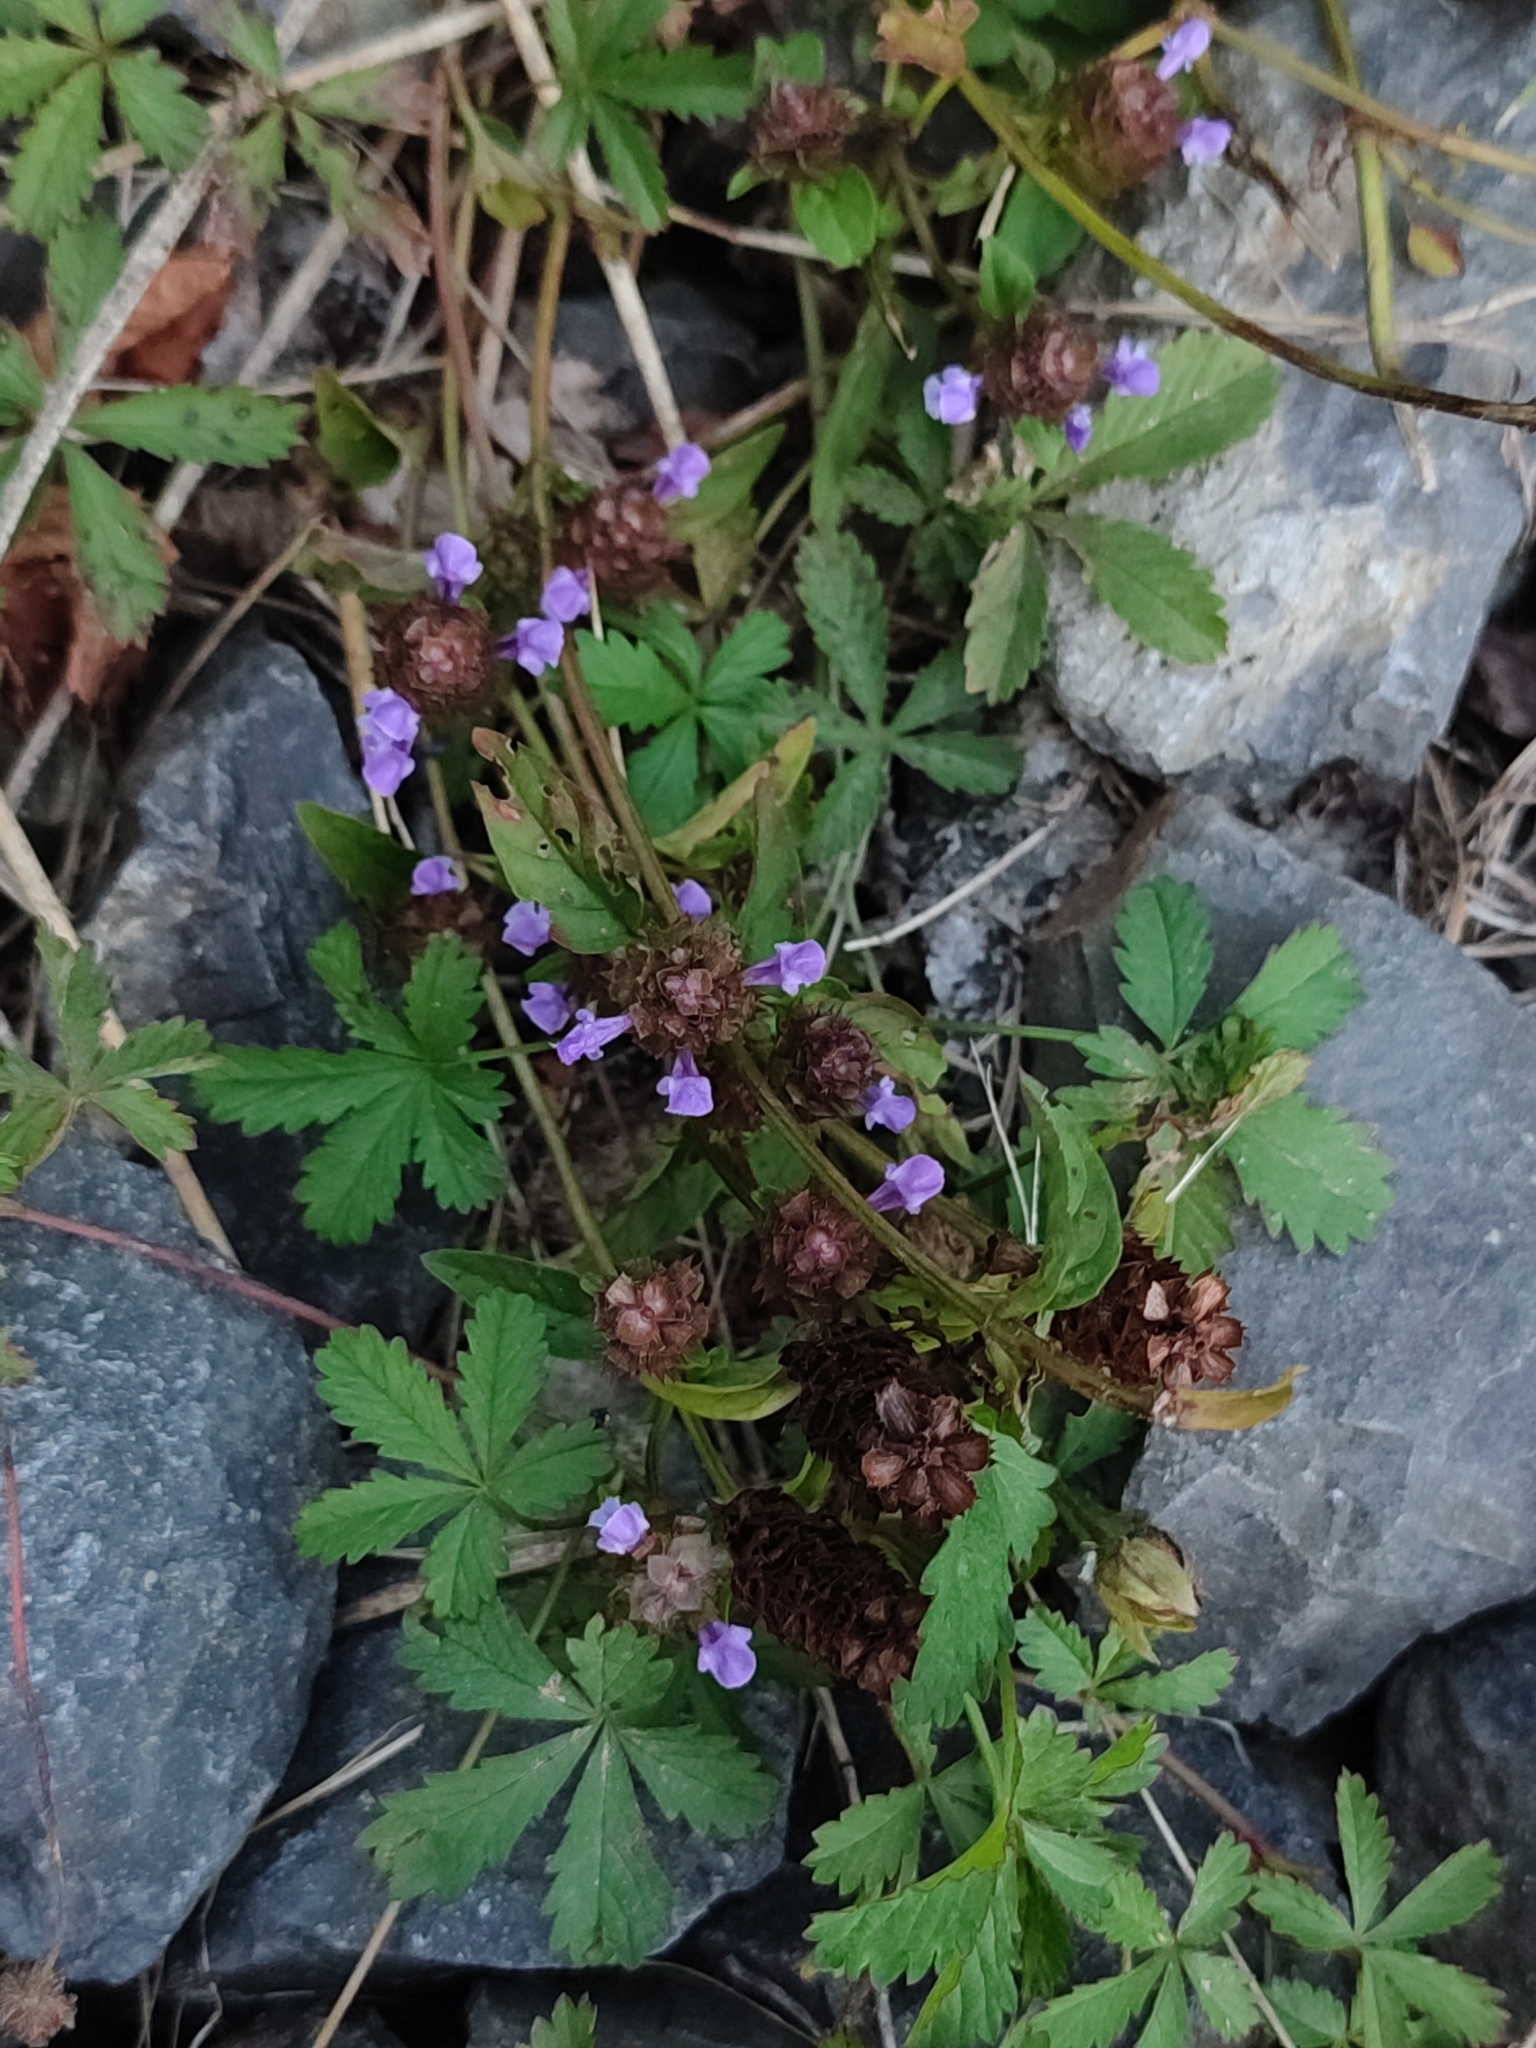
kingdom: Plantae
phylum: Tracheophyta
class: Magnoliopsida
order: Lamiales
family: Lamiaceae
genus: Prunella
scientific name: Prunella vulgaris
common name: Heal-all
